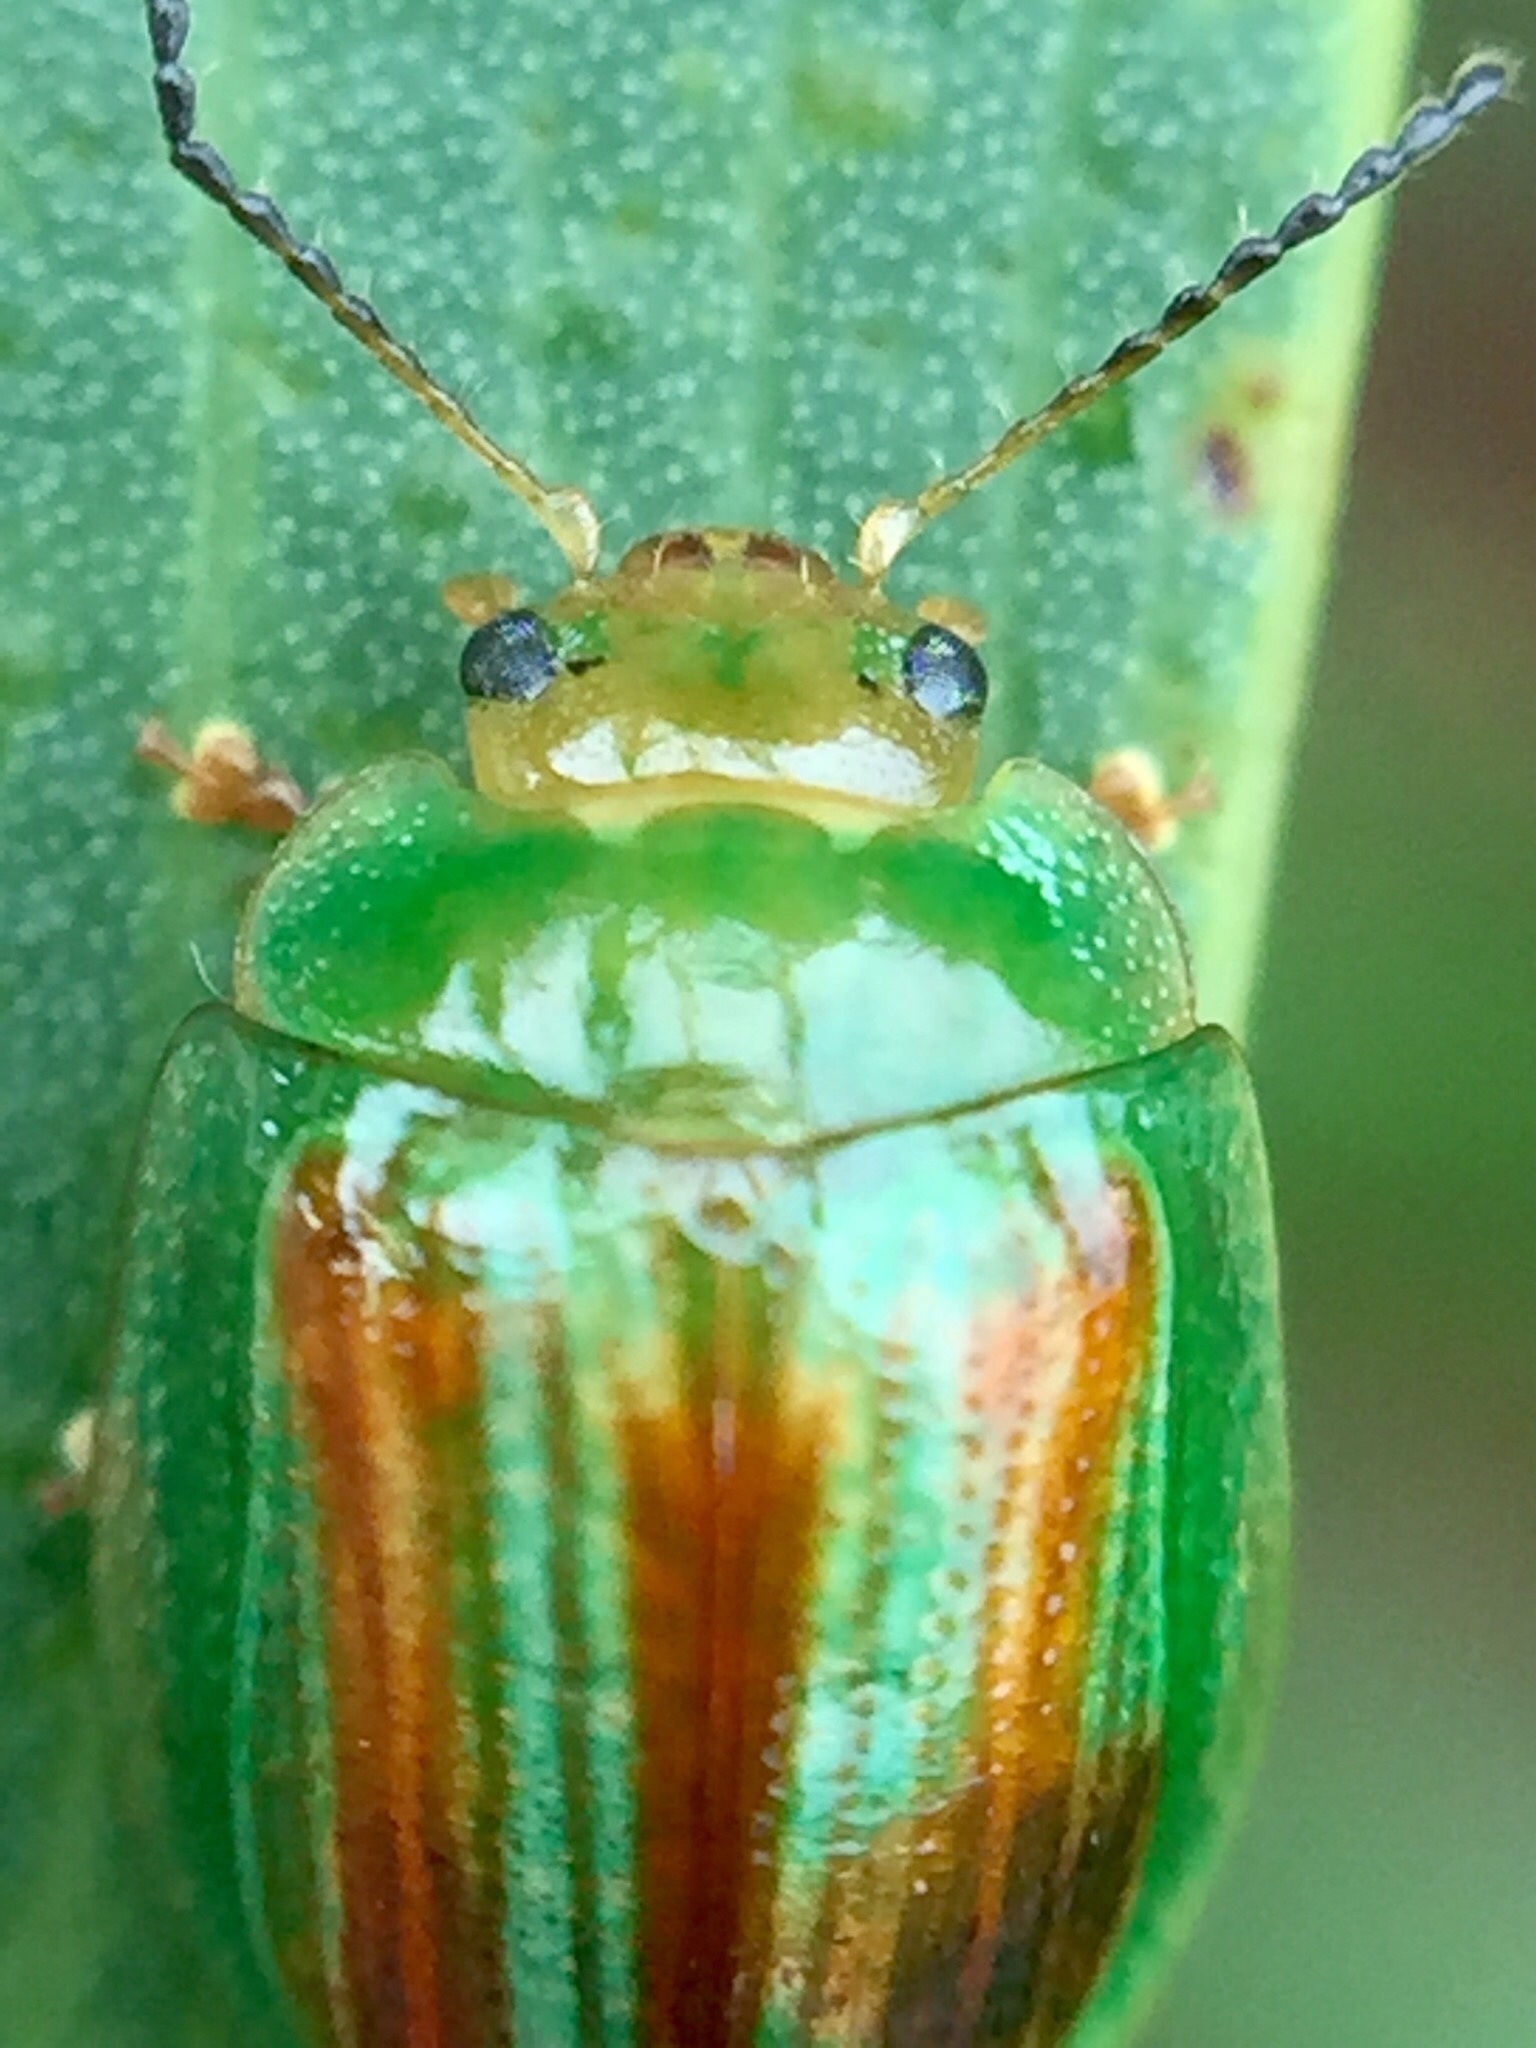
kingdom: Animalia
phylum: Arthropoda
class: Insecta
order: Coleoptera
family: Chrysomelidae
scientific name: Chrysomelidae
